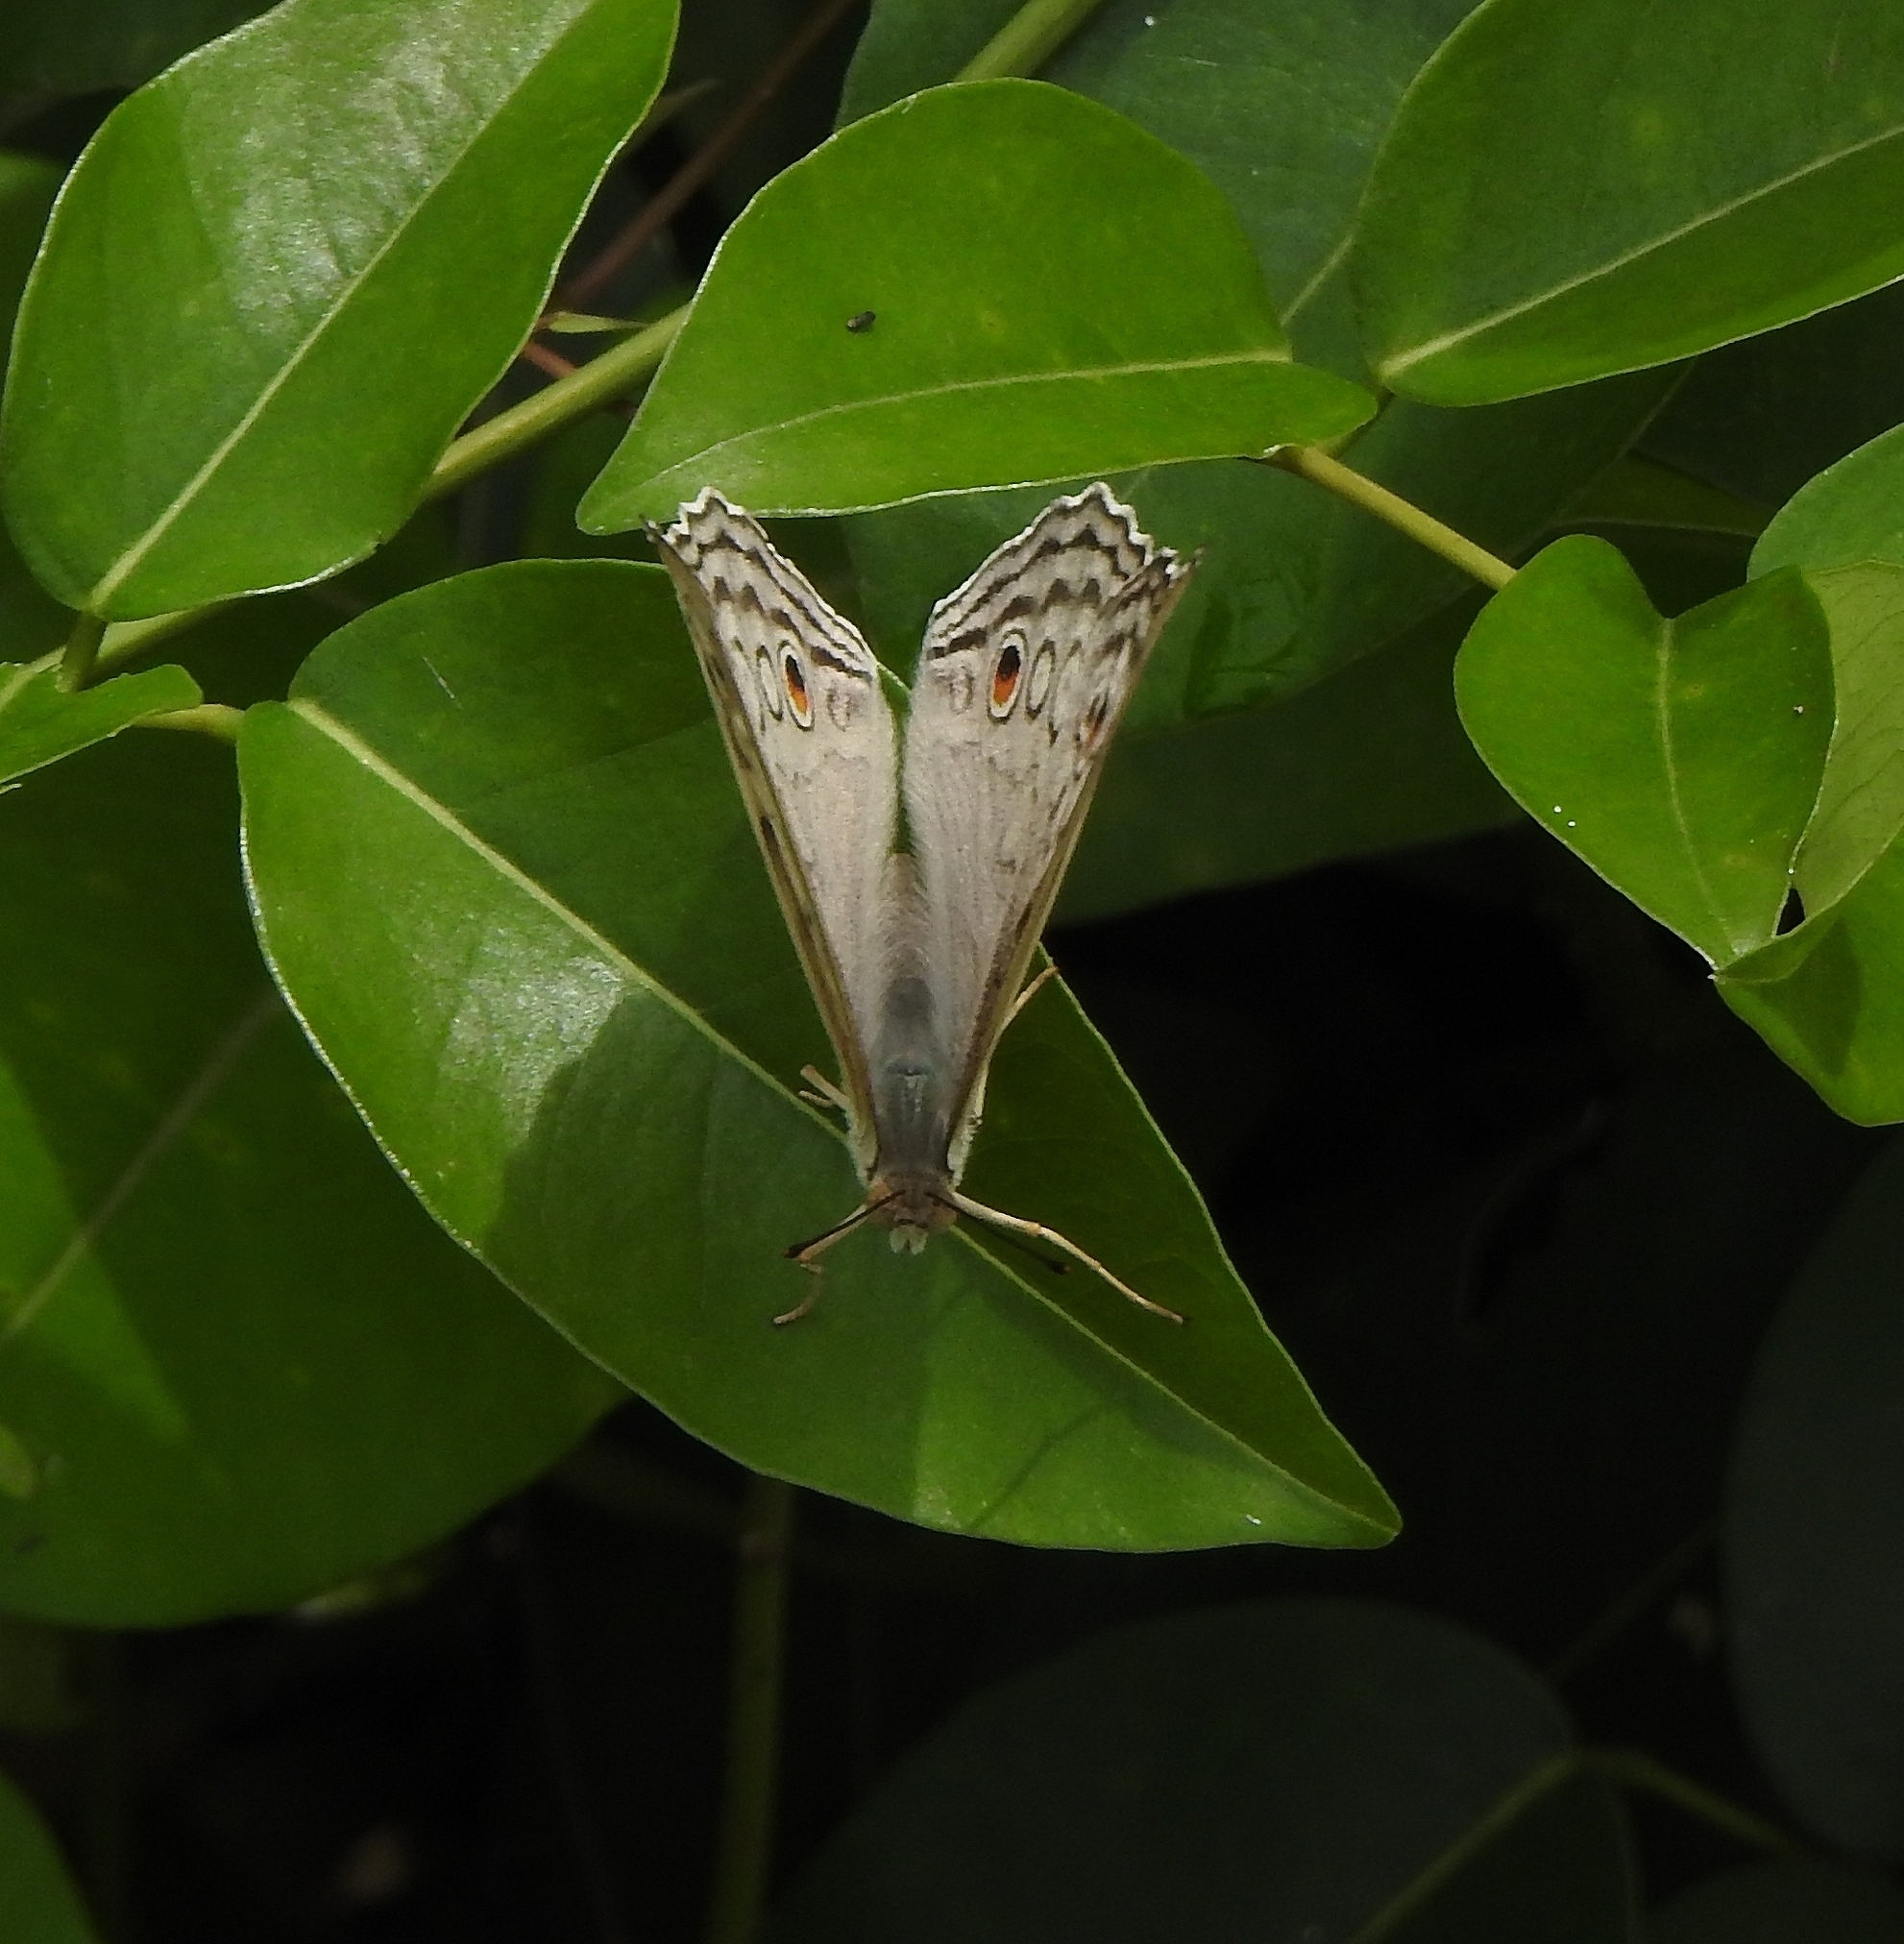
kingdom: Animalia
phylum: Arthropoda
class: Insecta
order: Lepidoptera
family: Nymphalidae
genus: Junonia
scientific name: Junonia atlites
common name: Grey pansy
